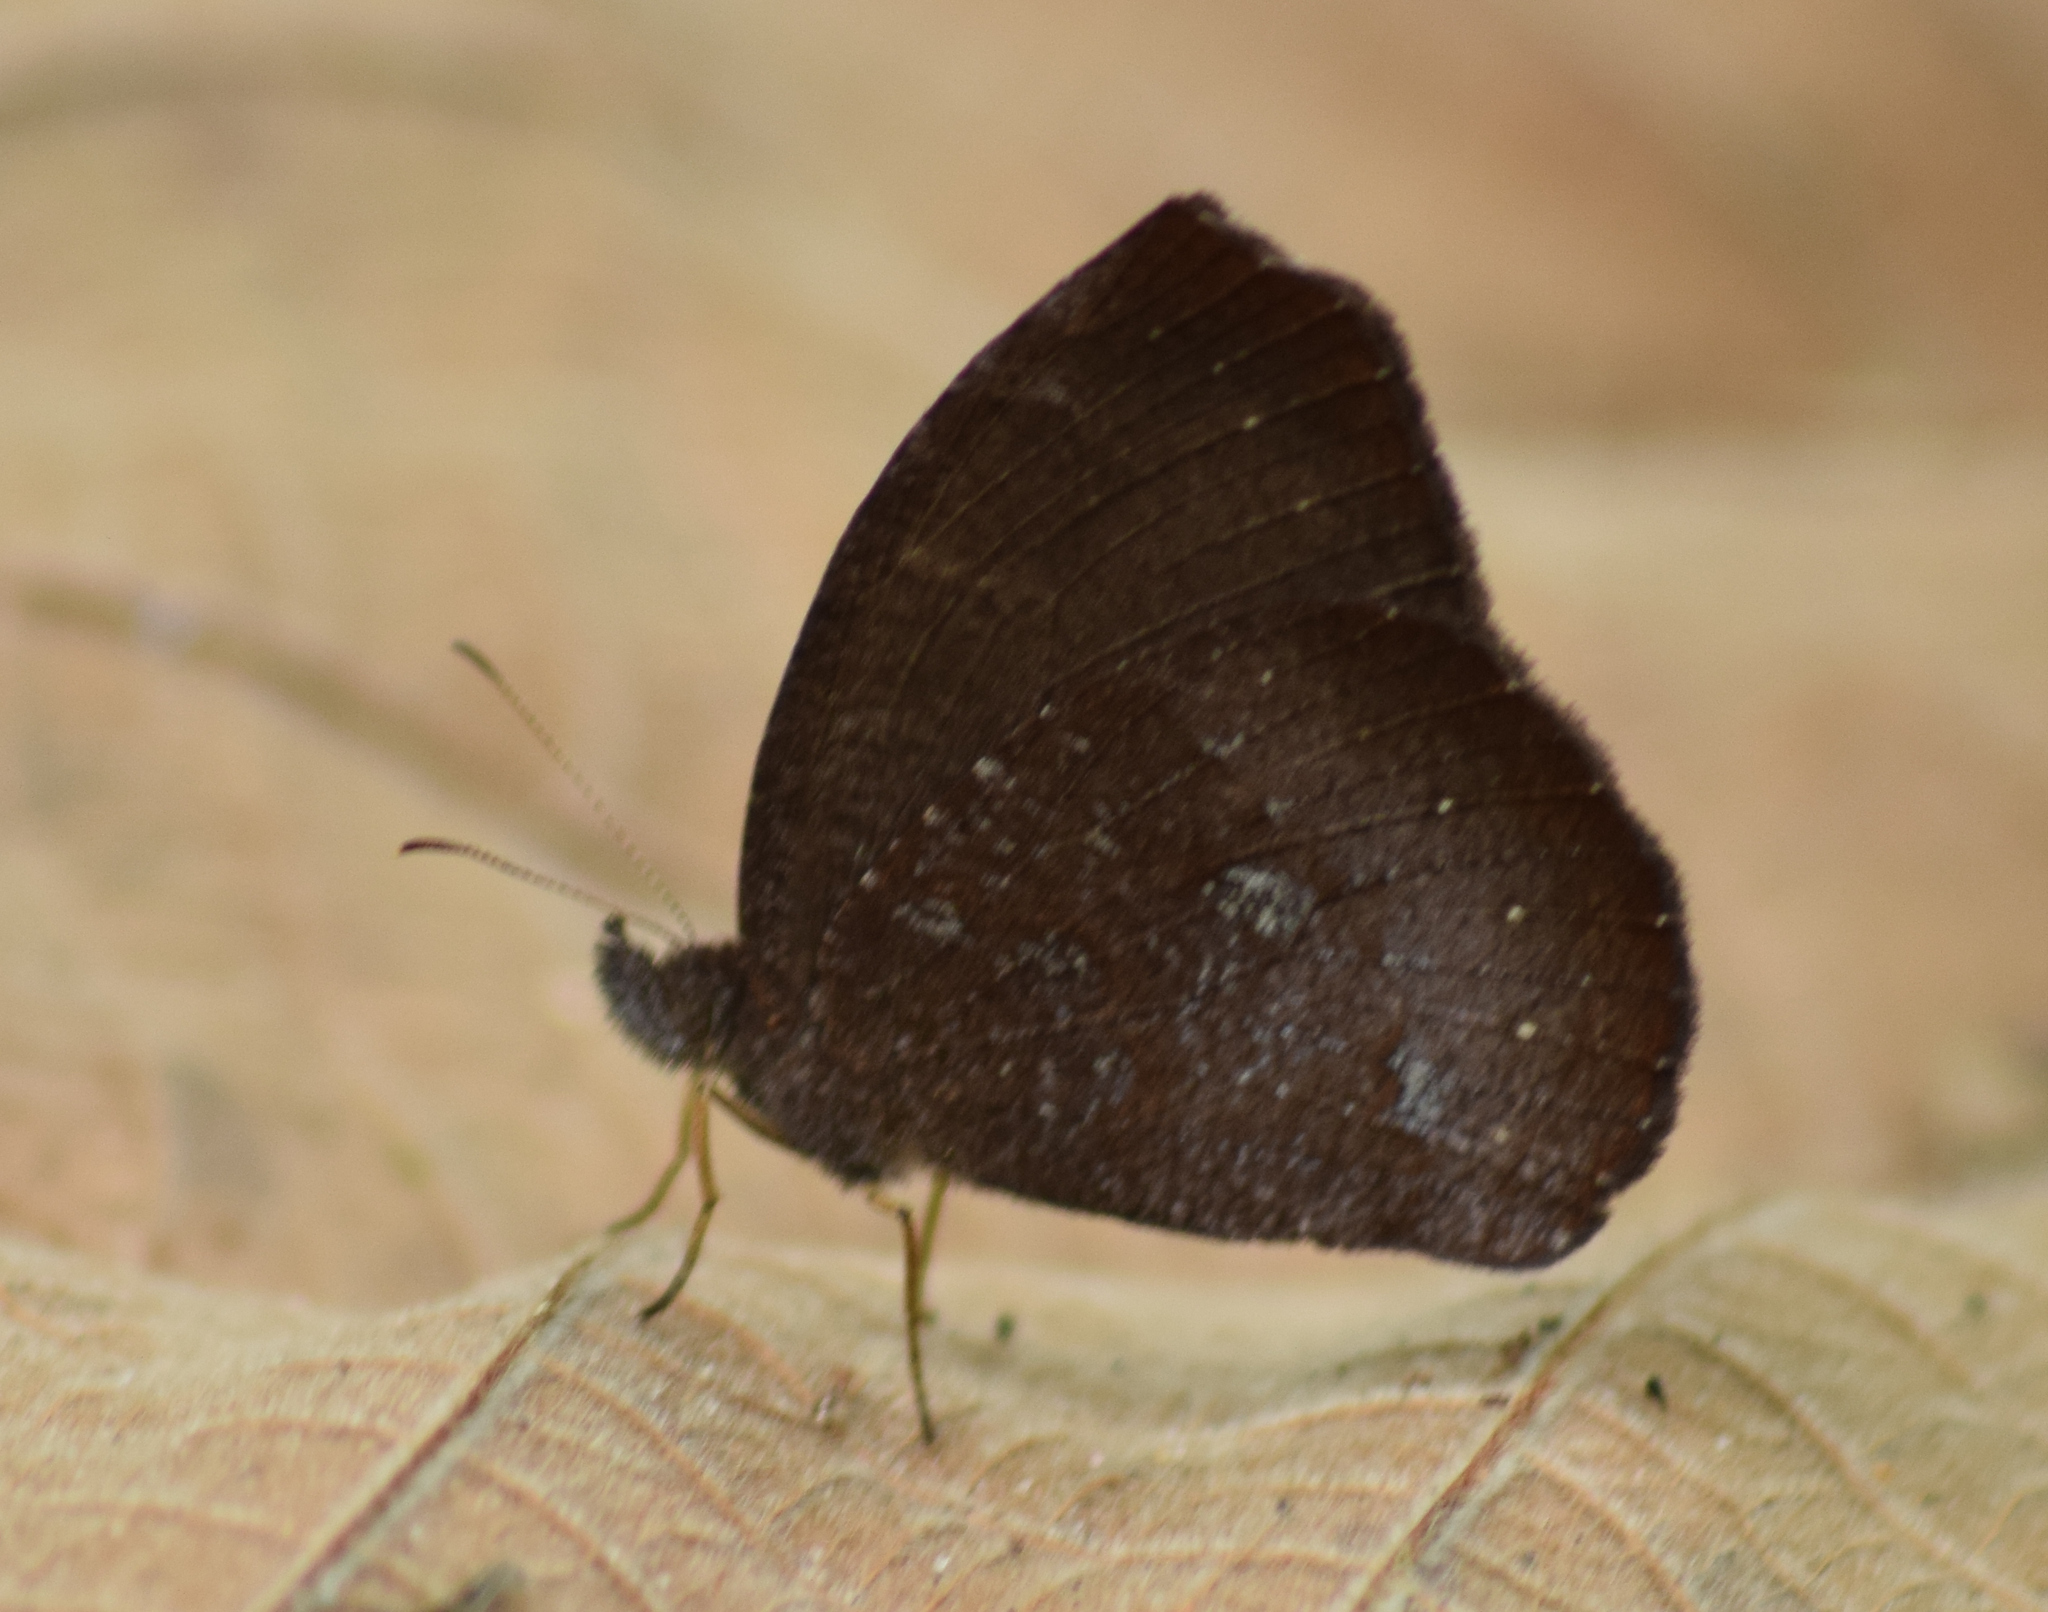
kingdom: Animalia
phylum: Arthropoda
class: Insecta
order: Lepidoptera
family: Nymphalidae
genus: Godartiana
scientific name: Godartiana muscosa
